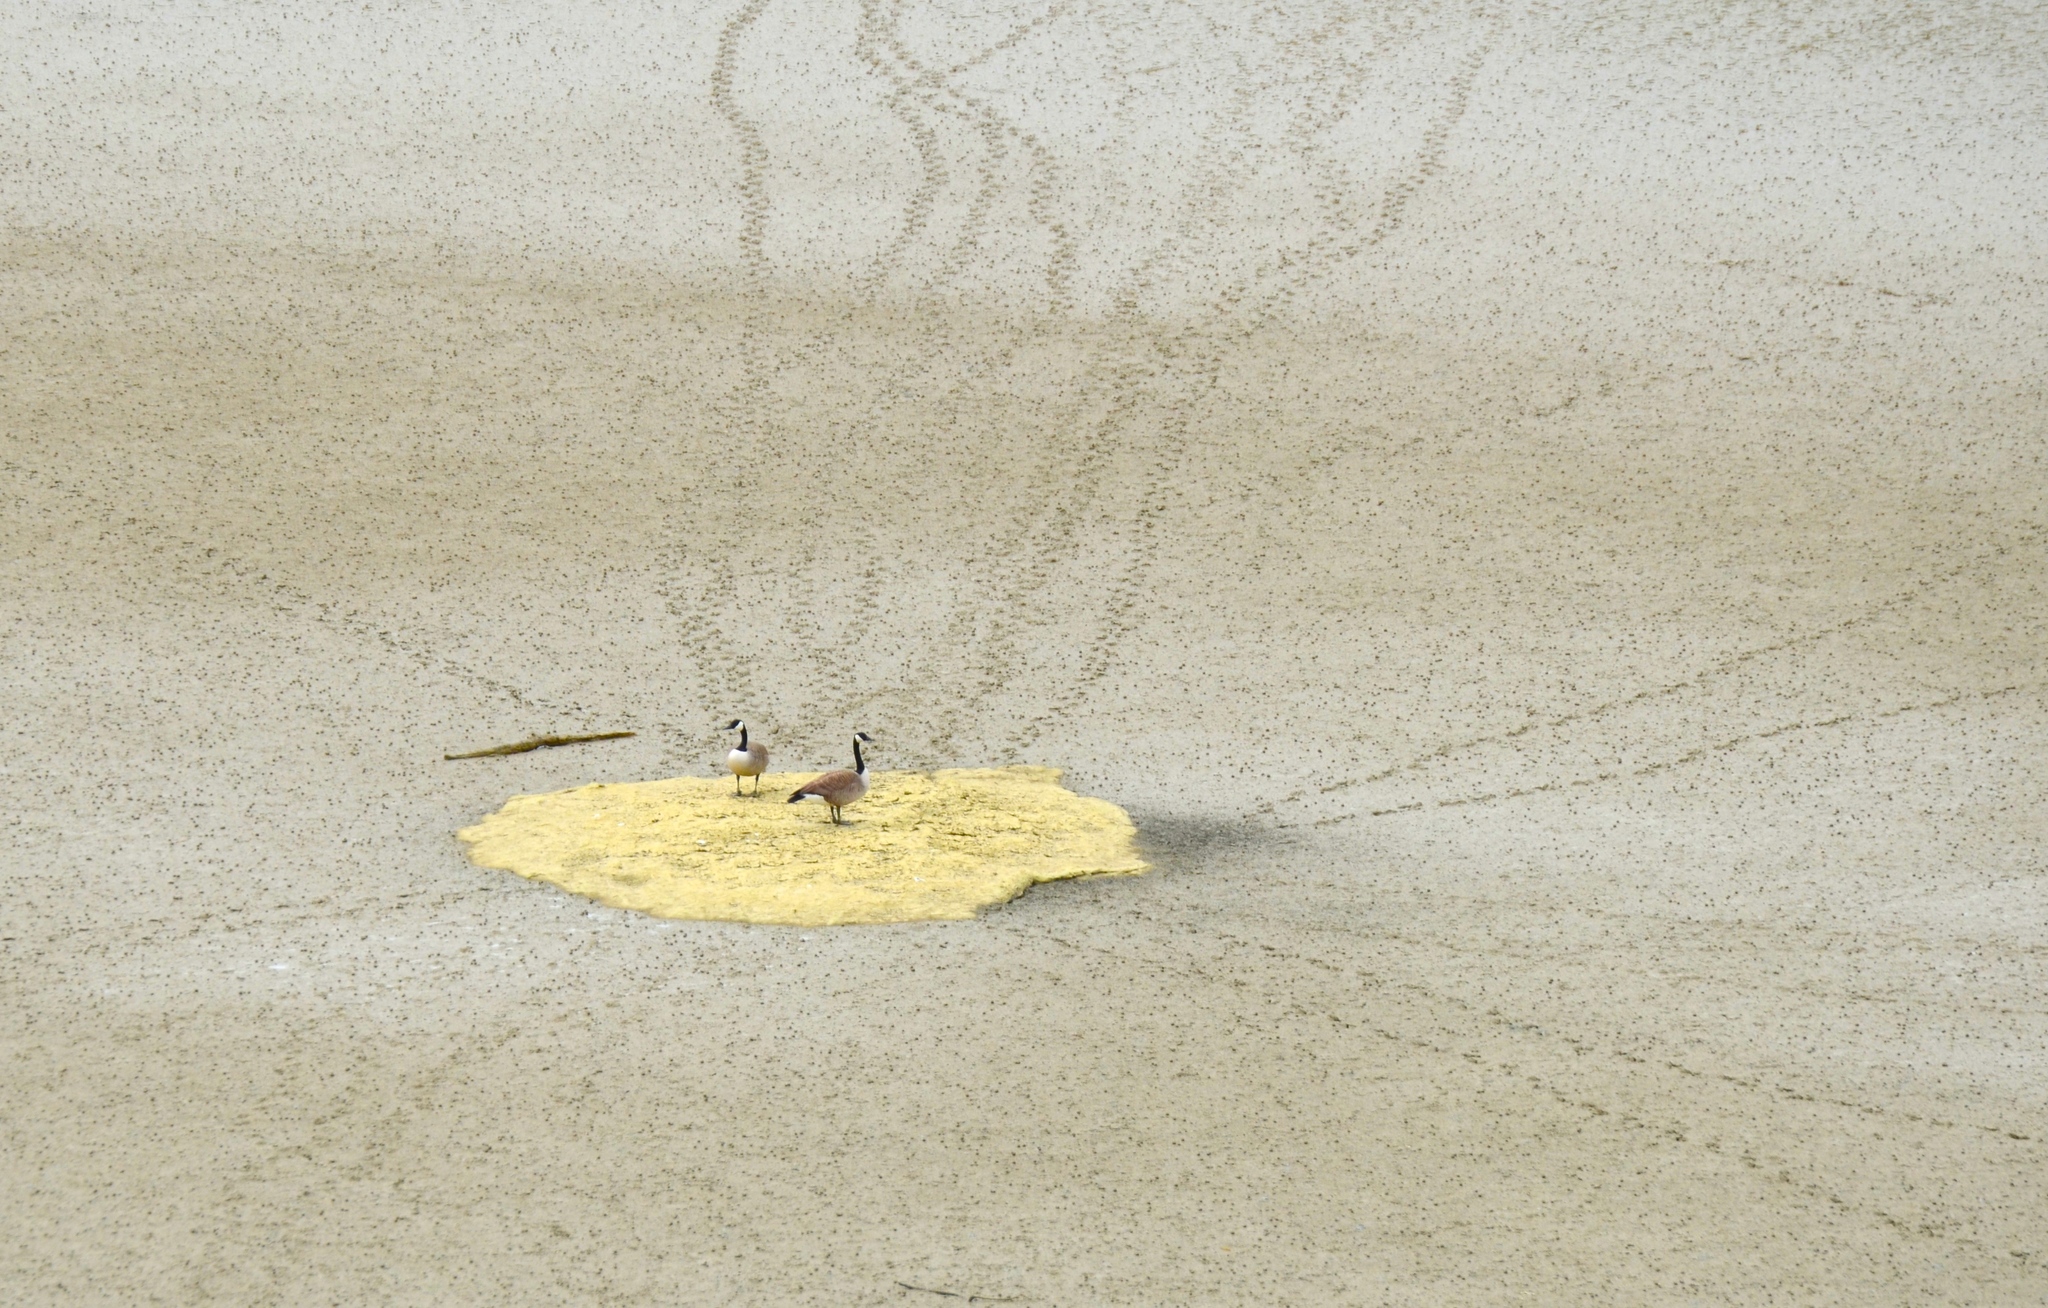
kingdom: Animalia
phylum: Chordata
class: Aves
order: Anseriformes
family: Anatidae
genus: Branta
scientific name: Branta canadensis
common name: Canada goose
